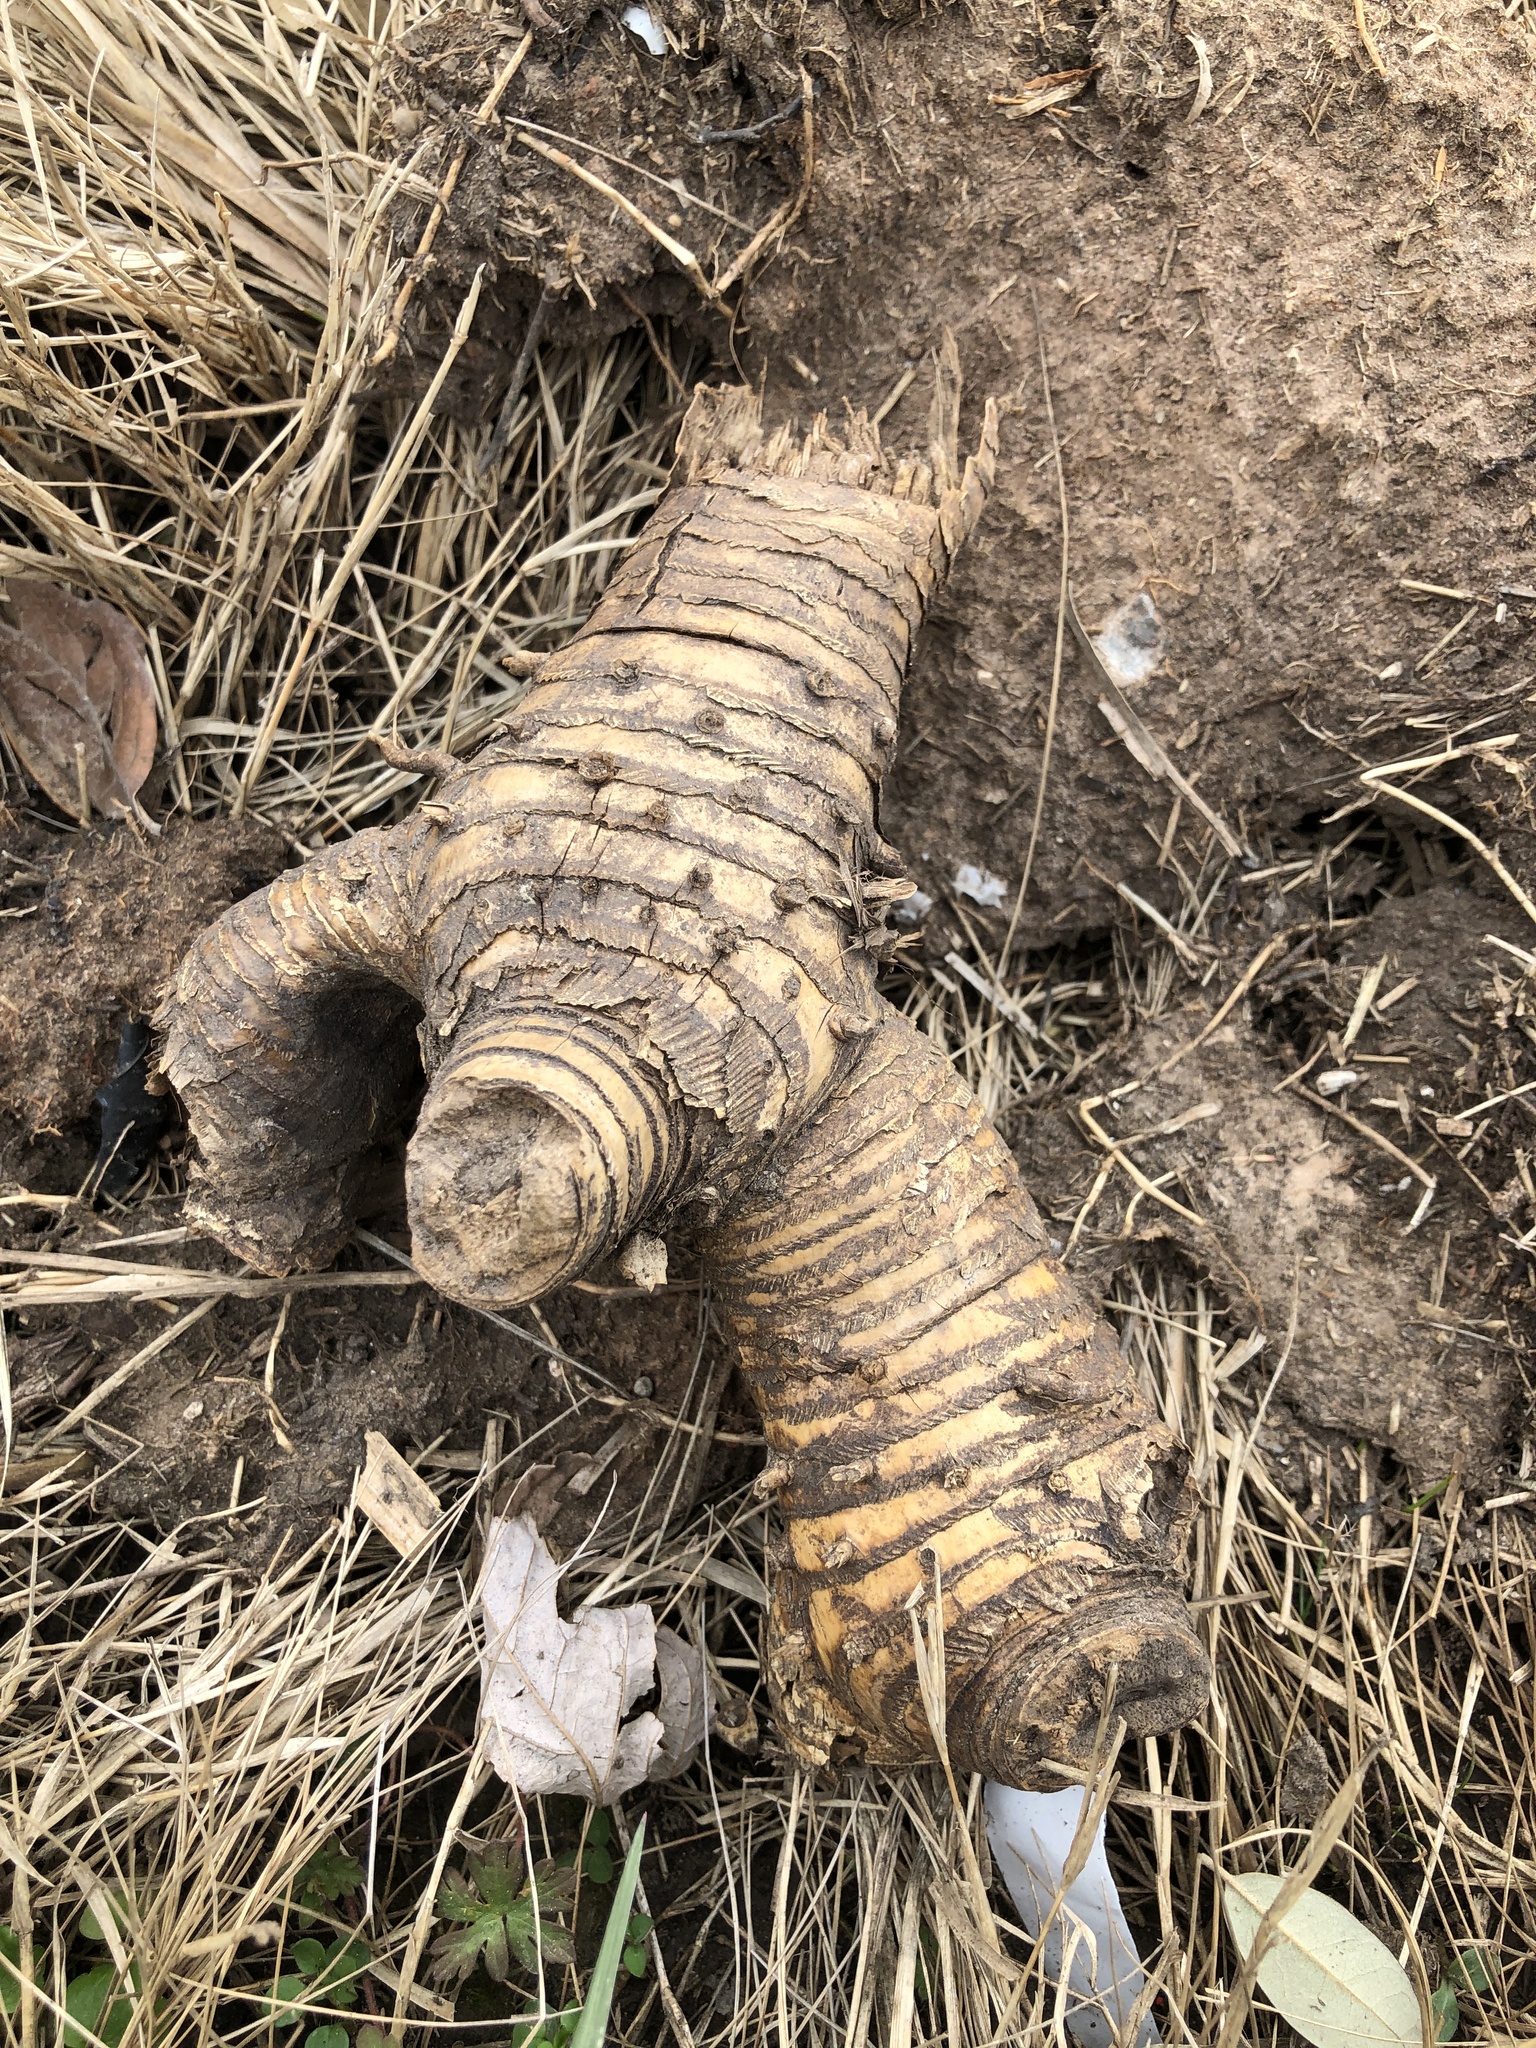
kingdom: Plantae
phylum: Tracheophyta
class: Liliopsida
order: Poales
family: Poaceae
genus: Arundo
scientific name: Arundo donax
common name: Giant reed
